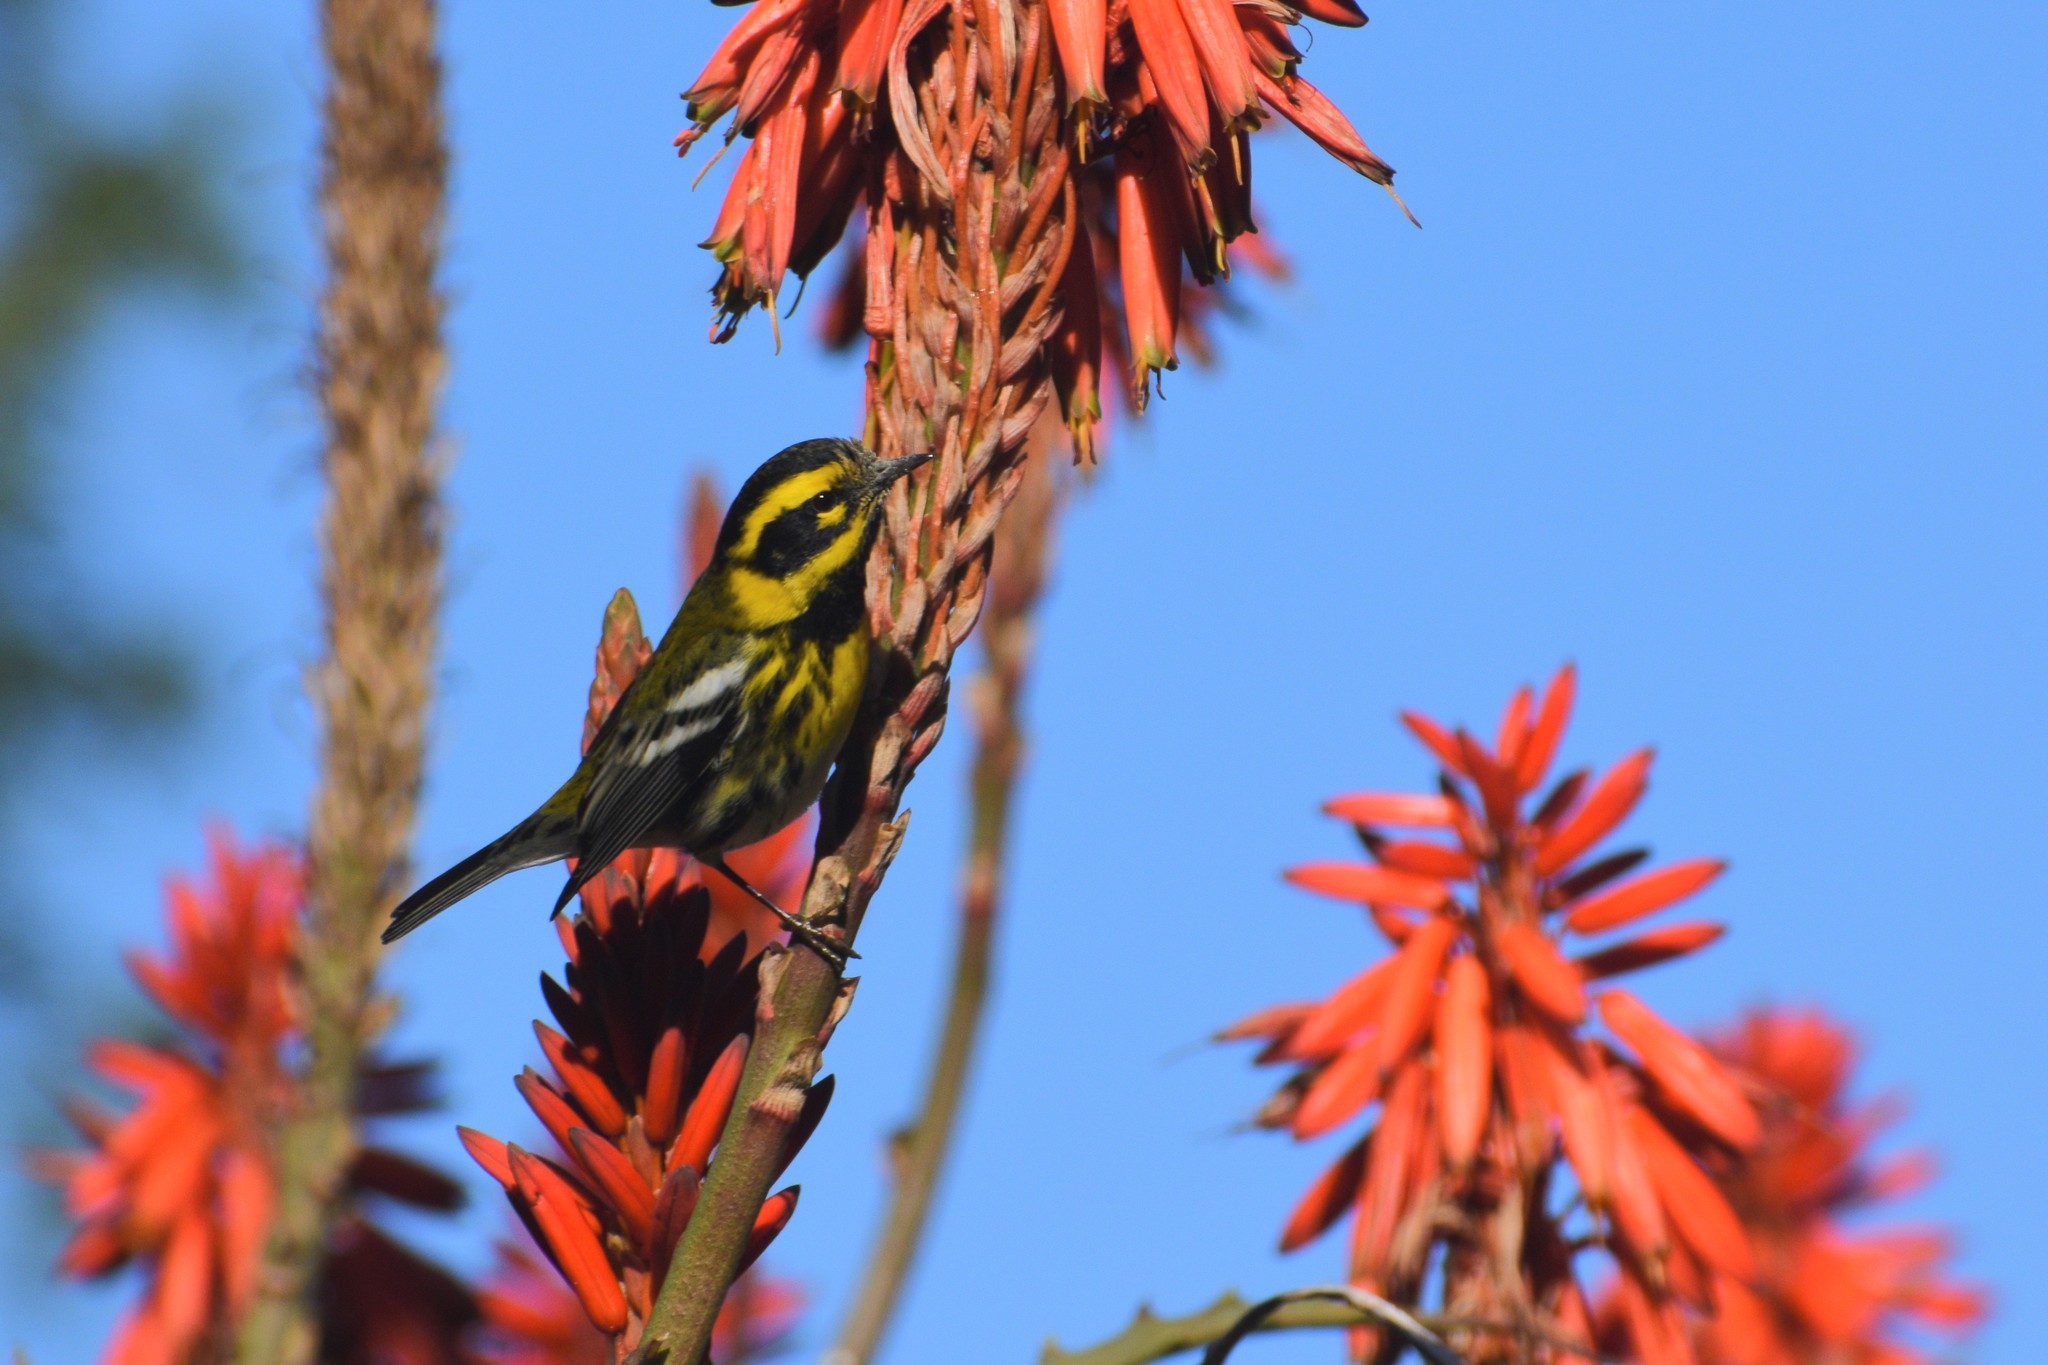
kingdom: Animalia
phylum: Chordata
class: Aves
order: Passeriformes
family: Parulidae
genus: Setophaga
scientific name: Setophaga townsendi
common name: Townsend's warbler
